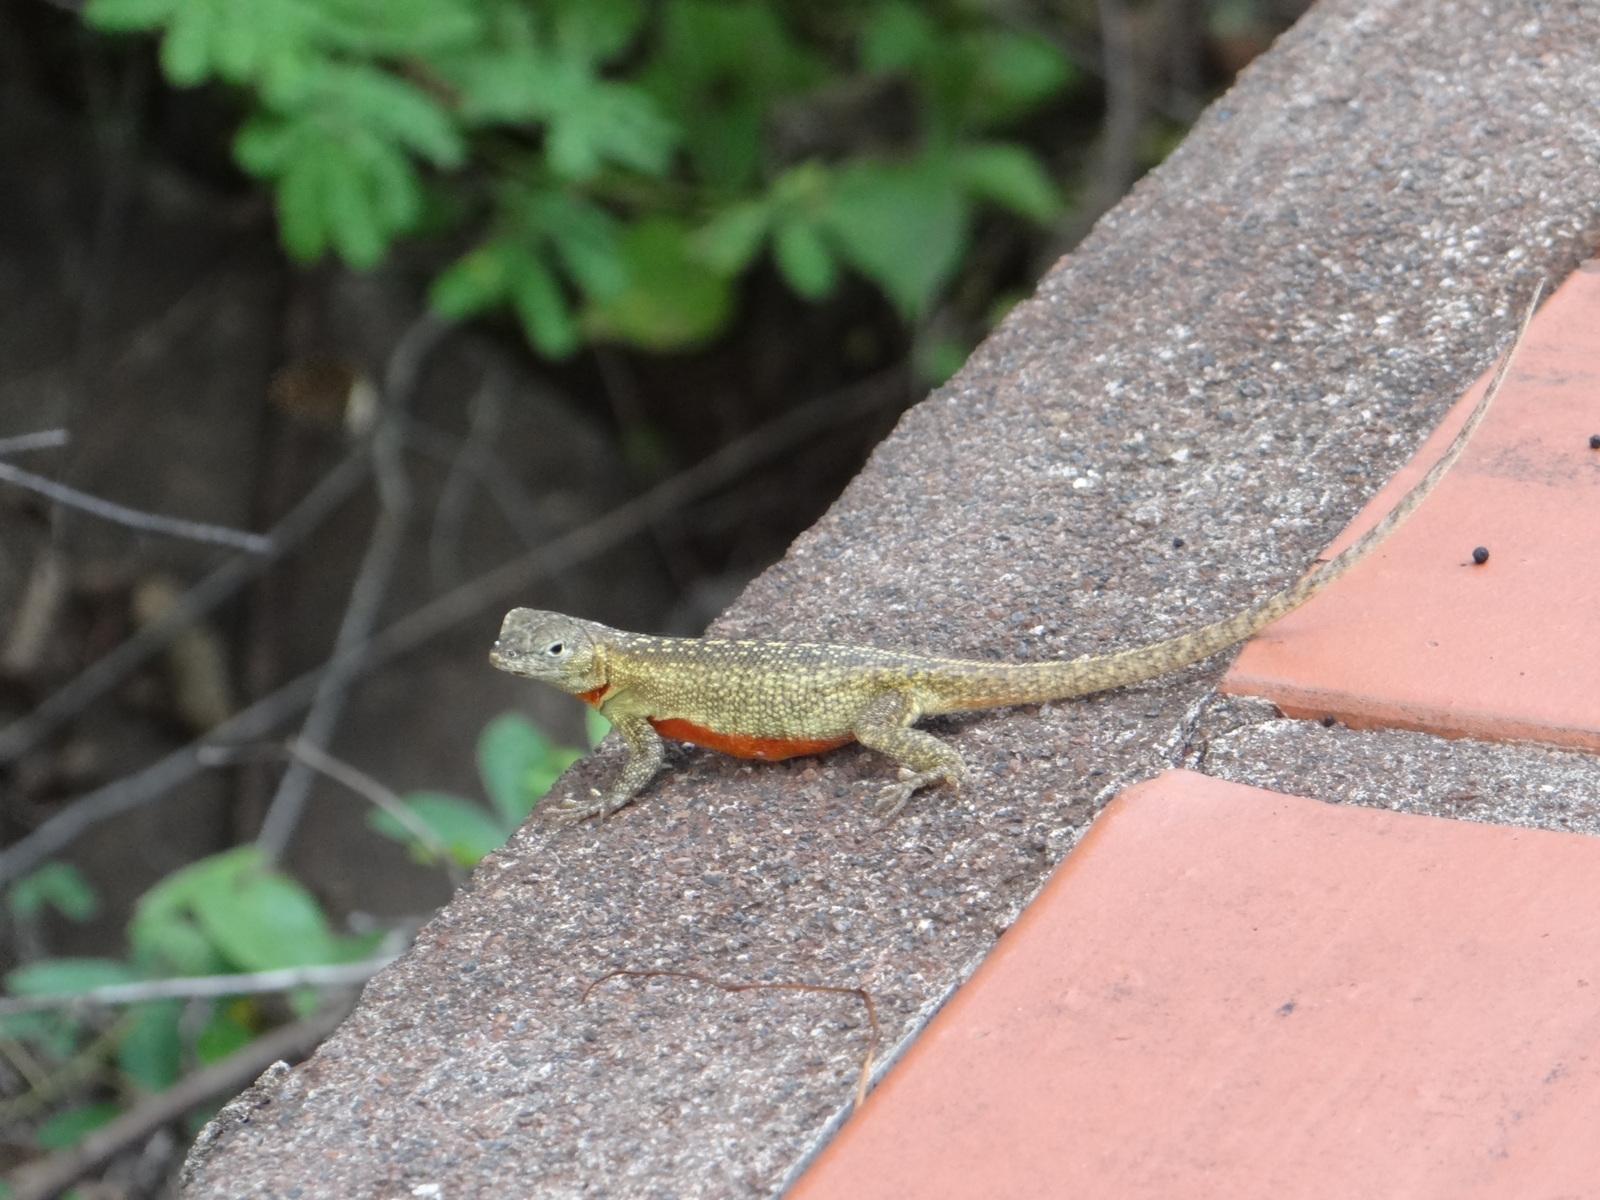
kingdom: Animalia
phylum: Chordata
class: Squamata
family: Tropiduridae
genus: Microlophus
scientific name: Microlophus bivittatus
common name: San cristobal lava lizard
